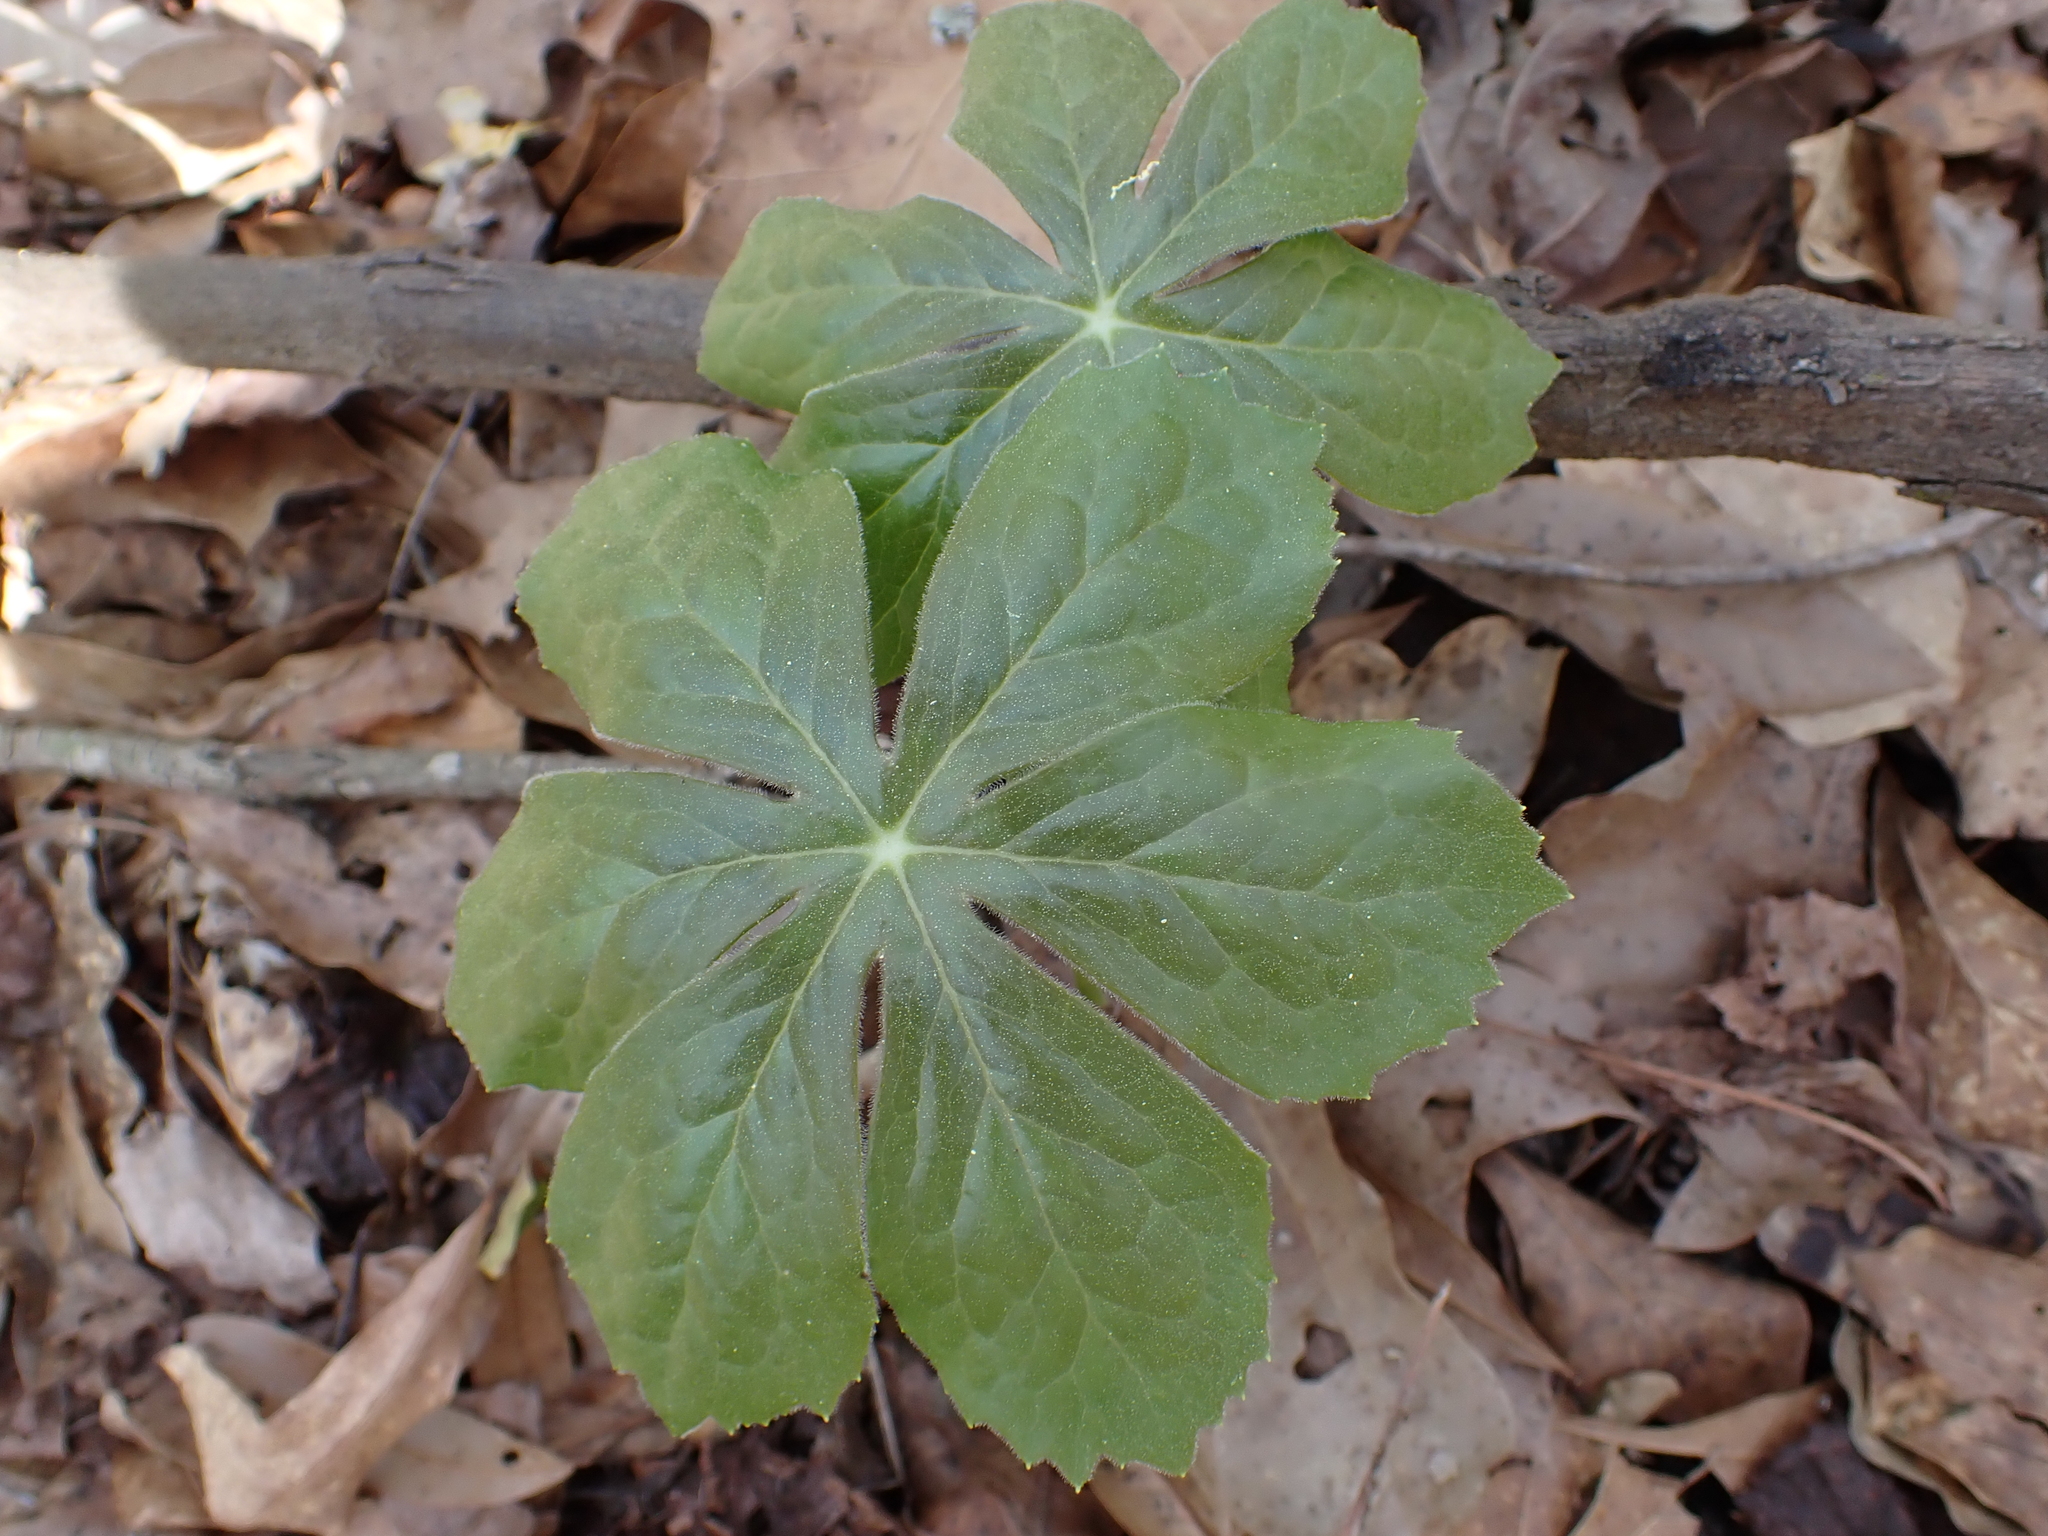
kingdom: Plantae
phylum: Tracheophyta
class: Magnoliopsida
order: Ranunculales
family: Berberidaceae
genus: Podophyllum
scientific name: Podophyllum peltatum
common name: Wild mandrake
